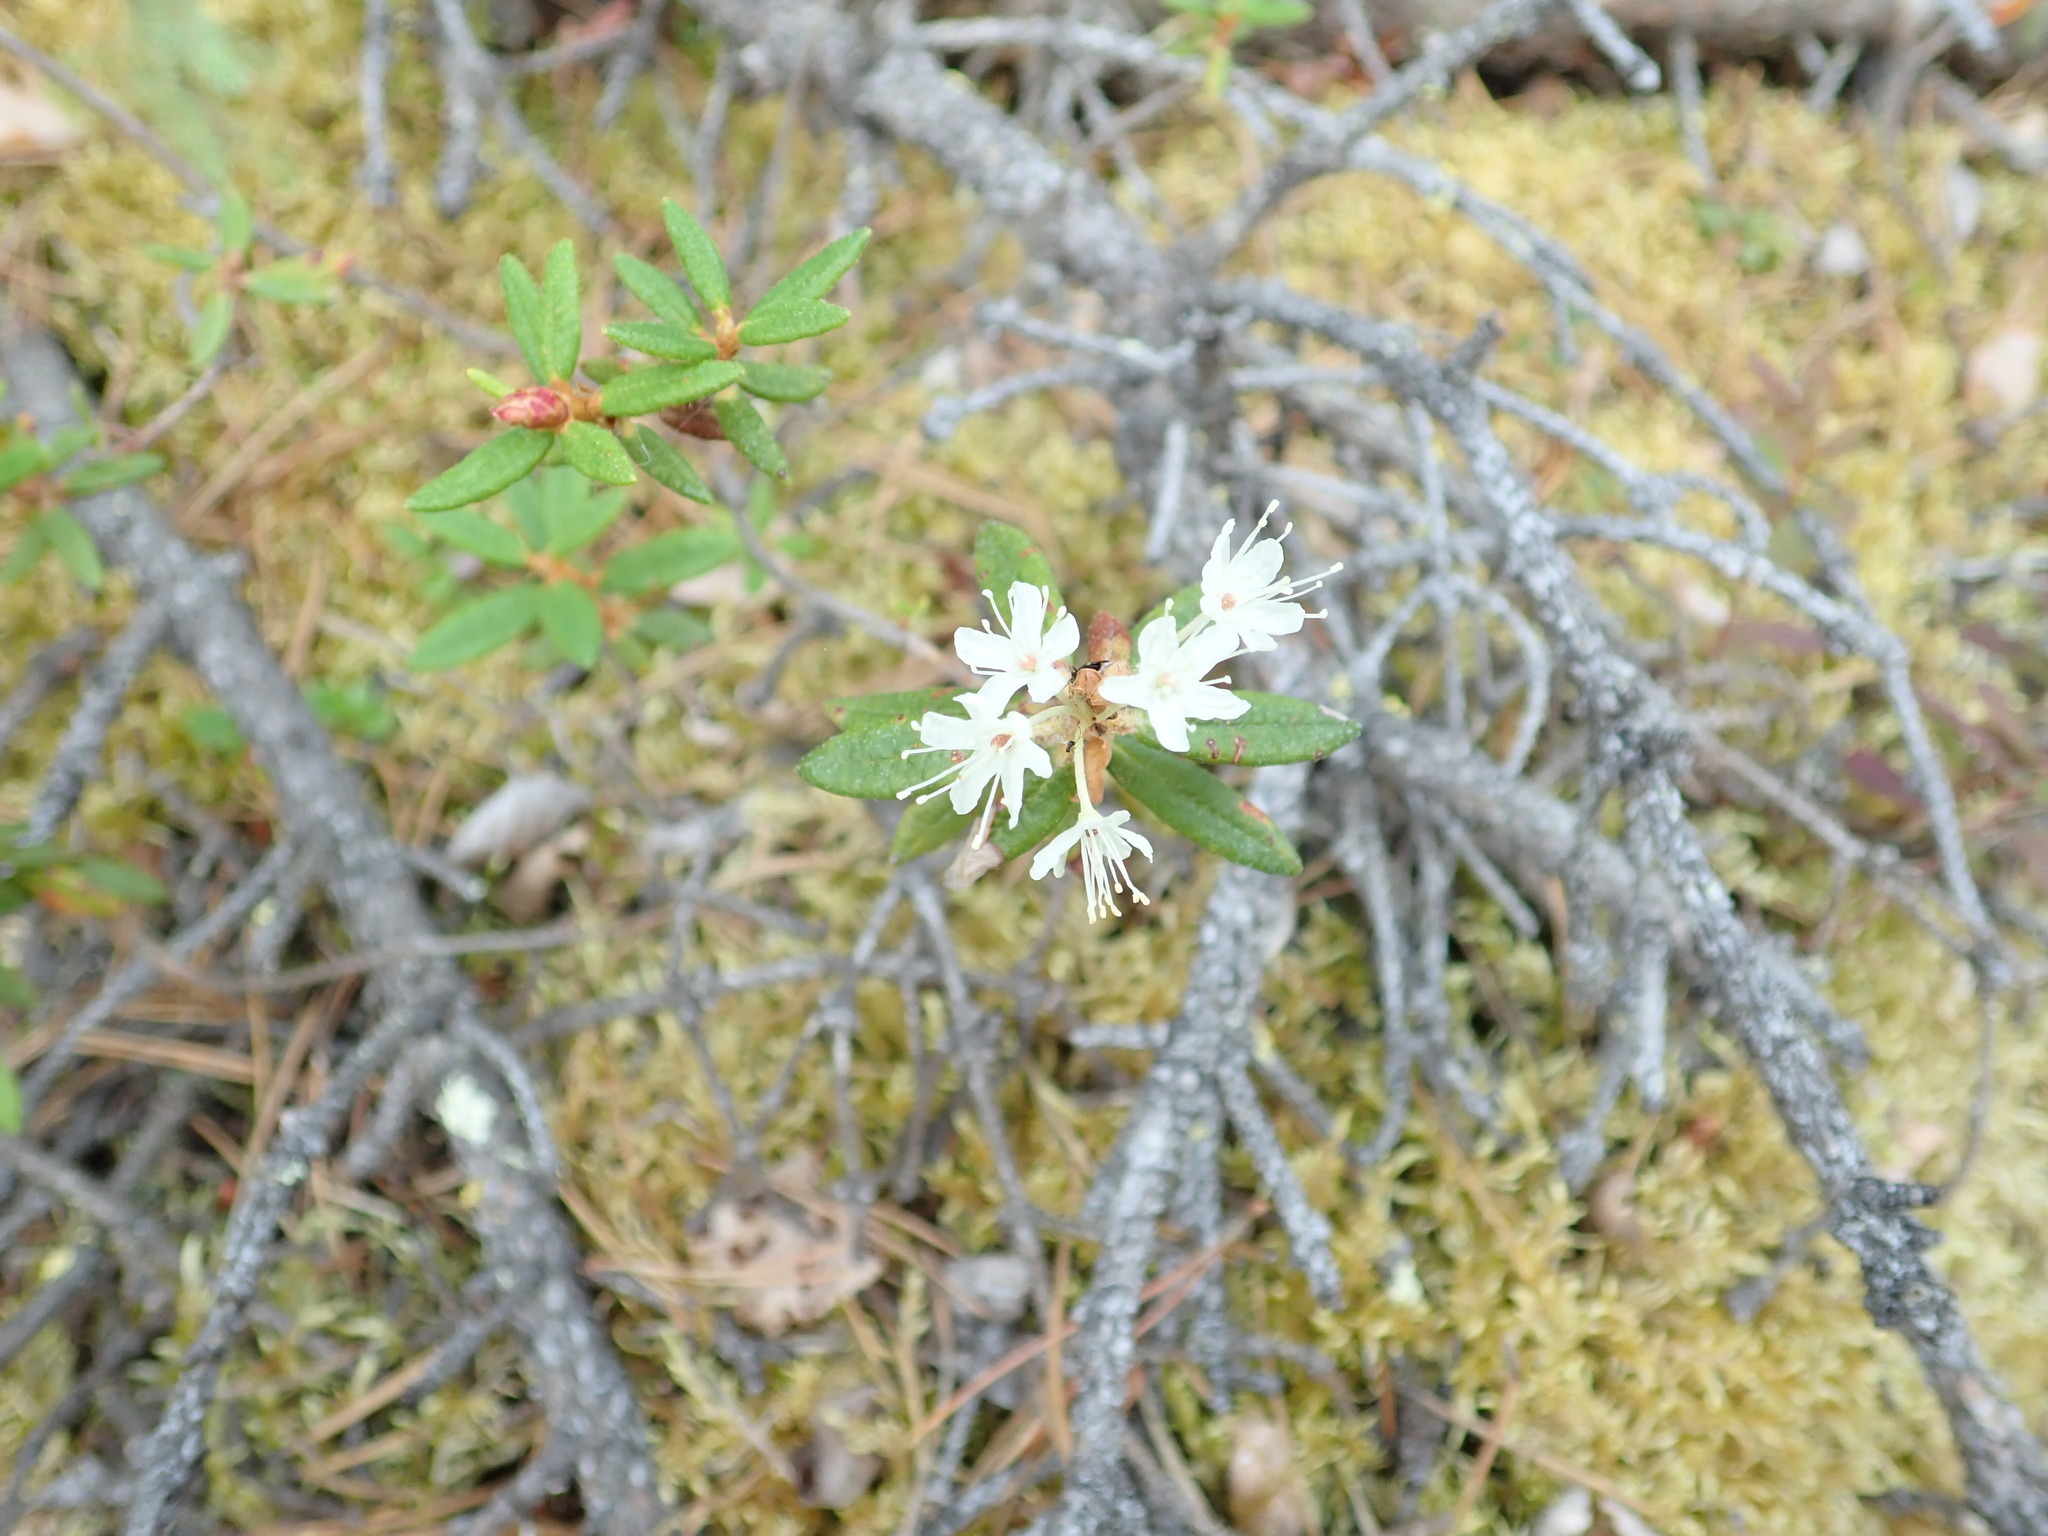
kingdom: Plantae
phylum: Tracheophyta
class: Magnoliopsida
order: Ericales
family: Ericaceae
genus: Rhododendron
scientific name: Rhododendron groenlandicum
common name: Bog labrador tea
